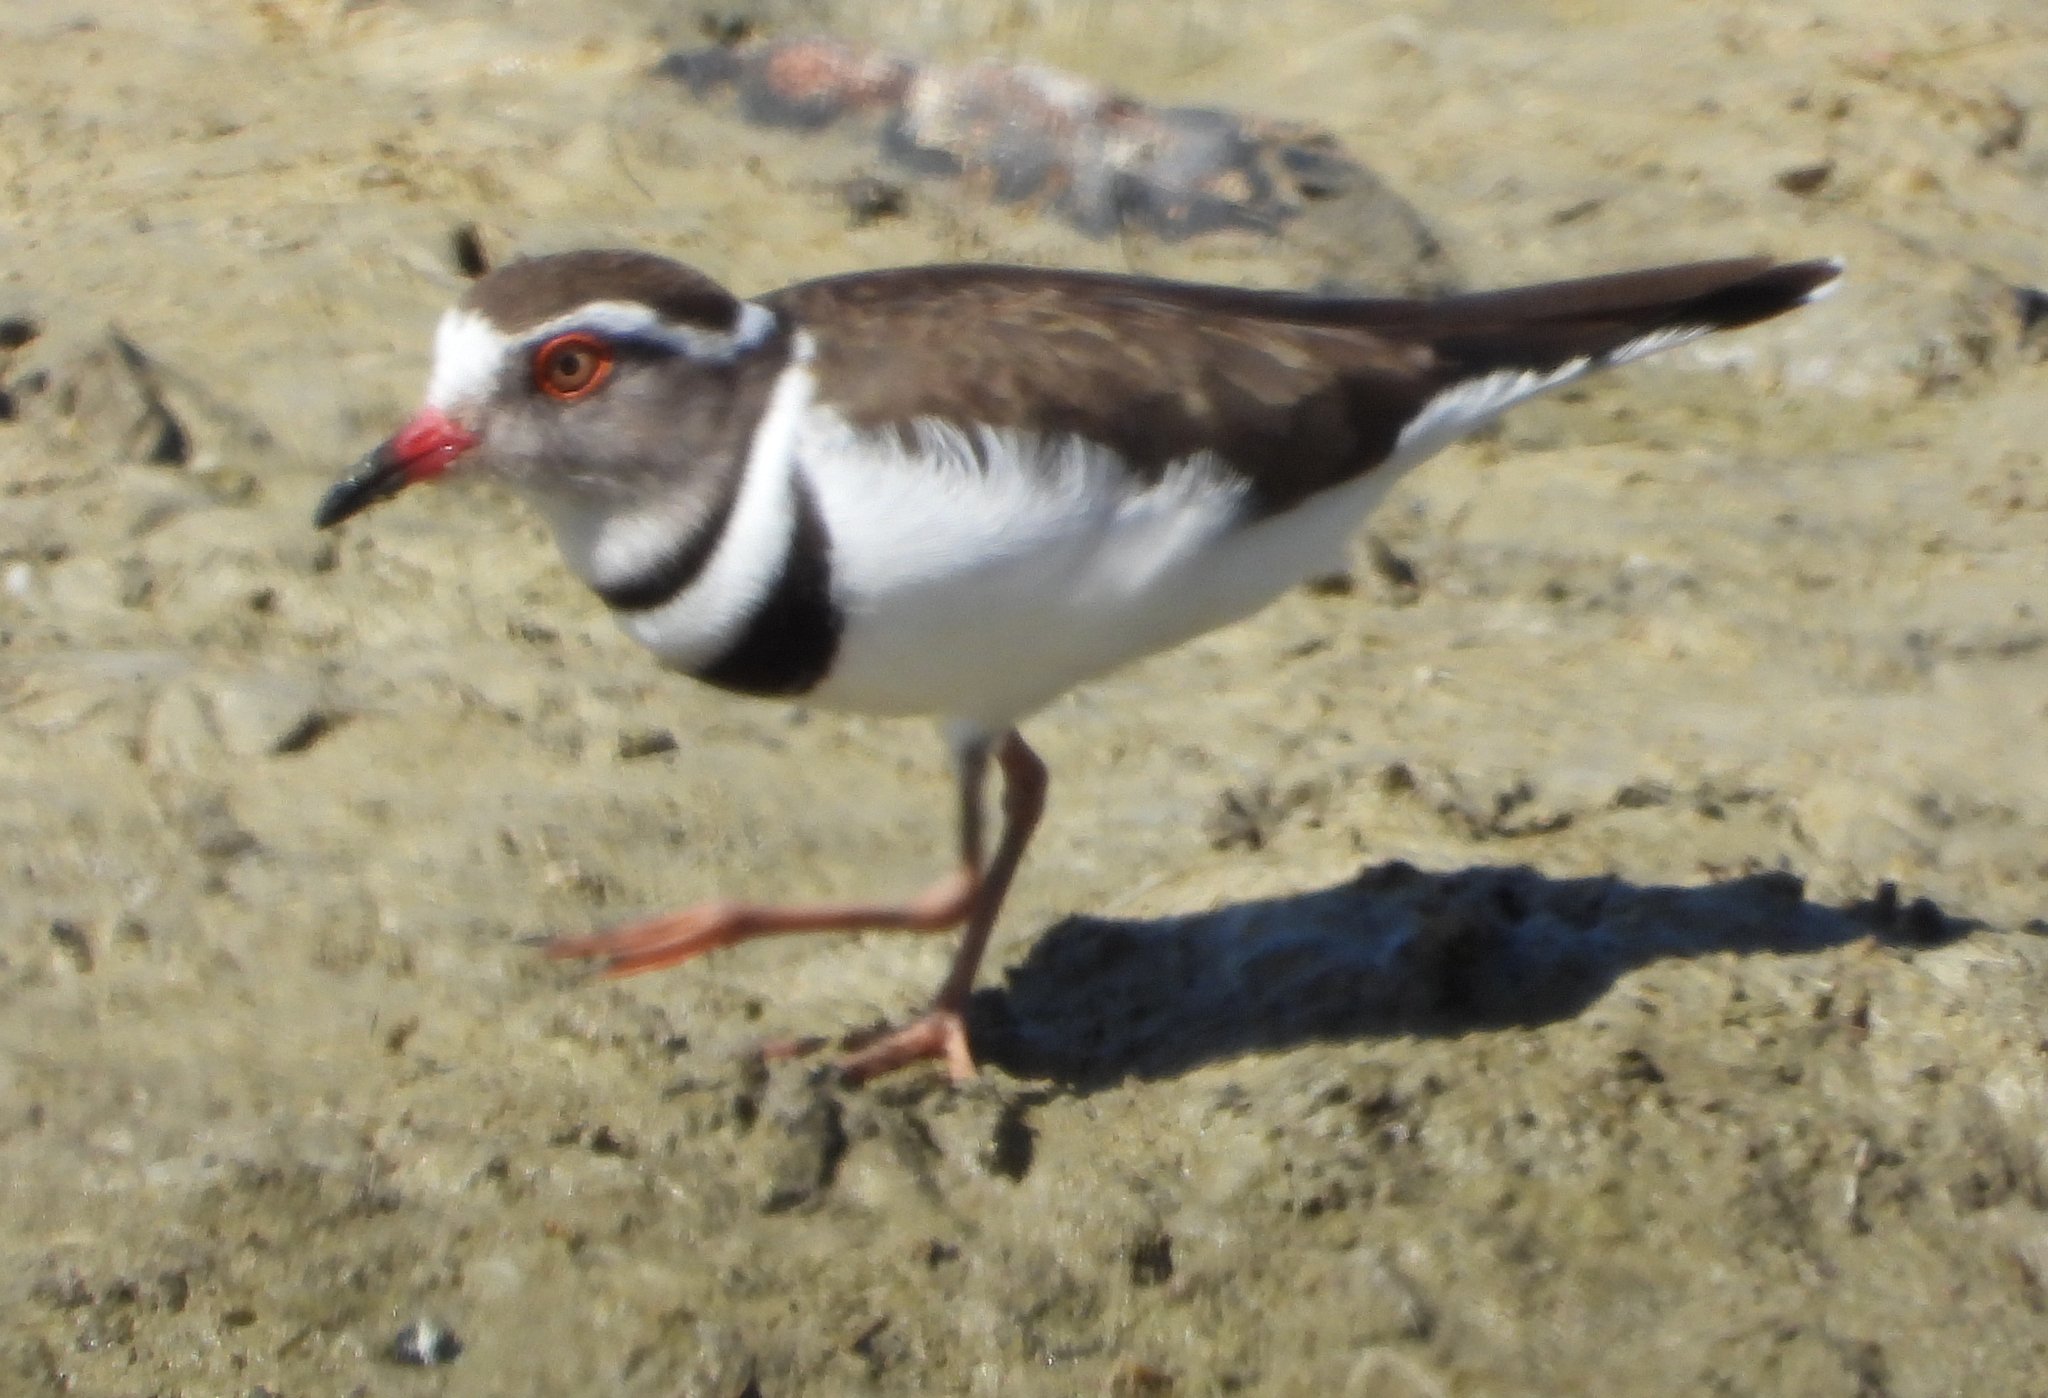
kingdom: Animalia
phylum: Chordata
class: Aves
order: Charadriiformes
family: Charadriidae
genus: Charadrius
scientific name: Charadrius tricollaris
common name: Three-banded plover
